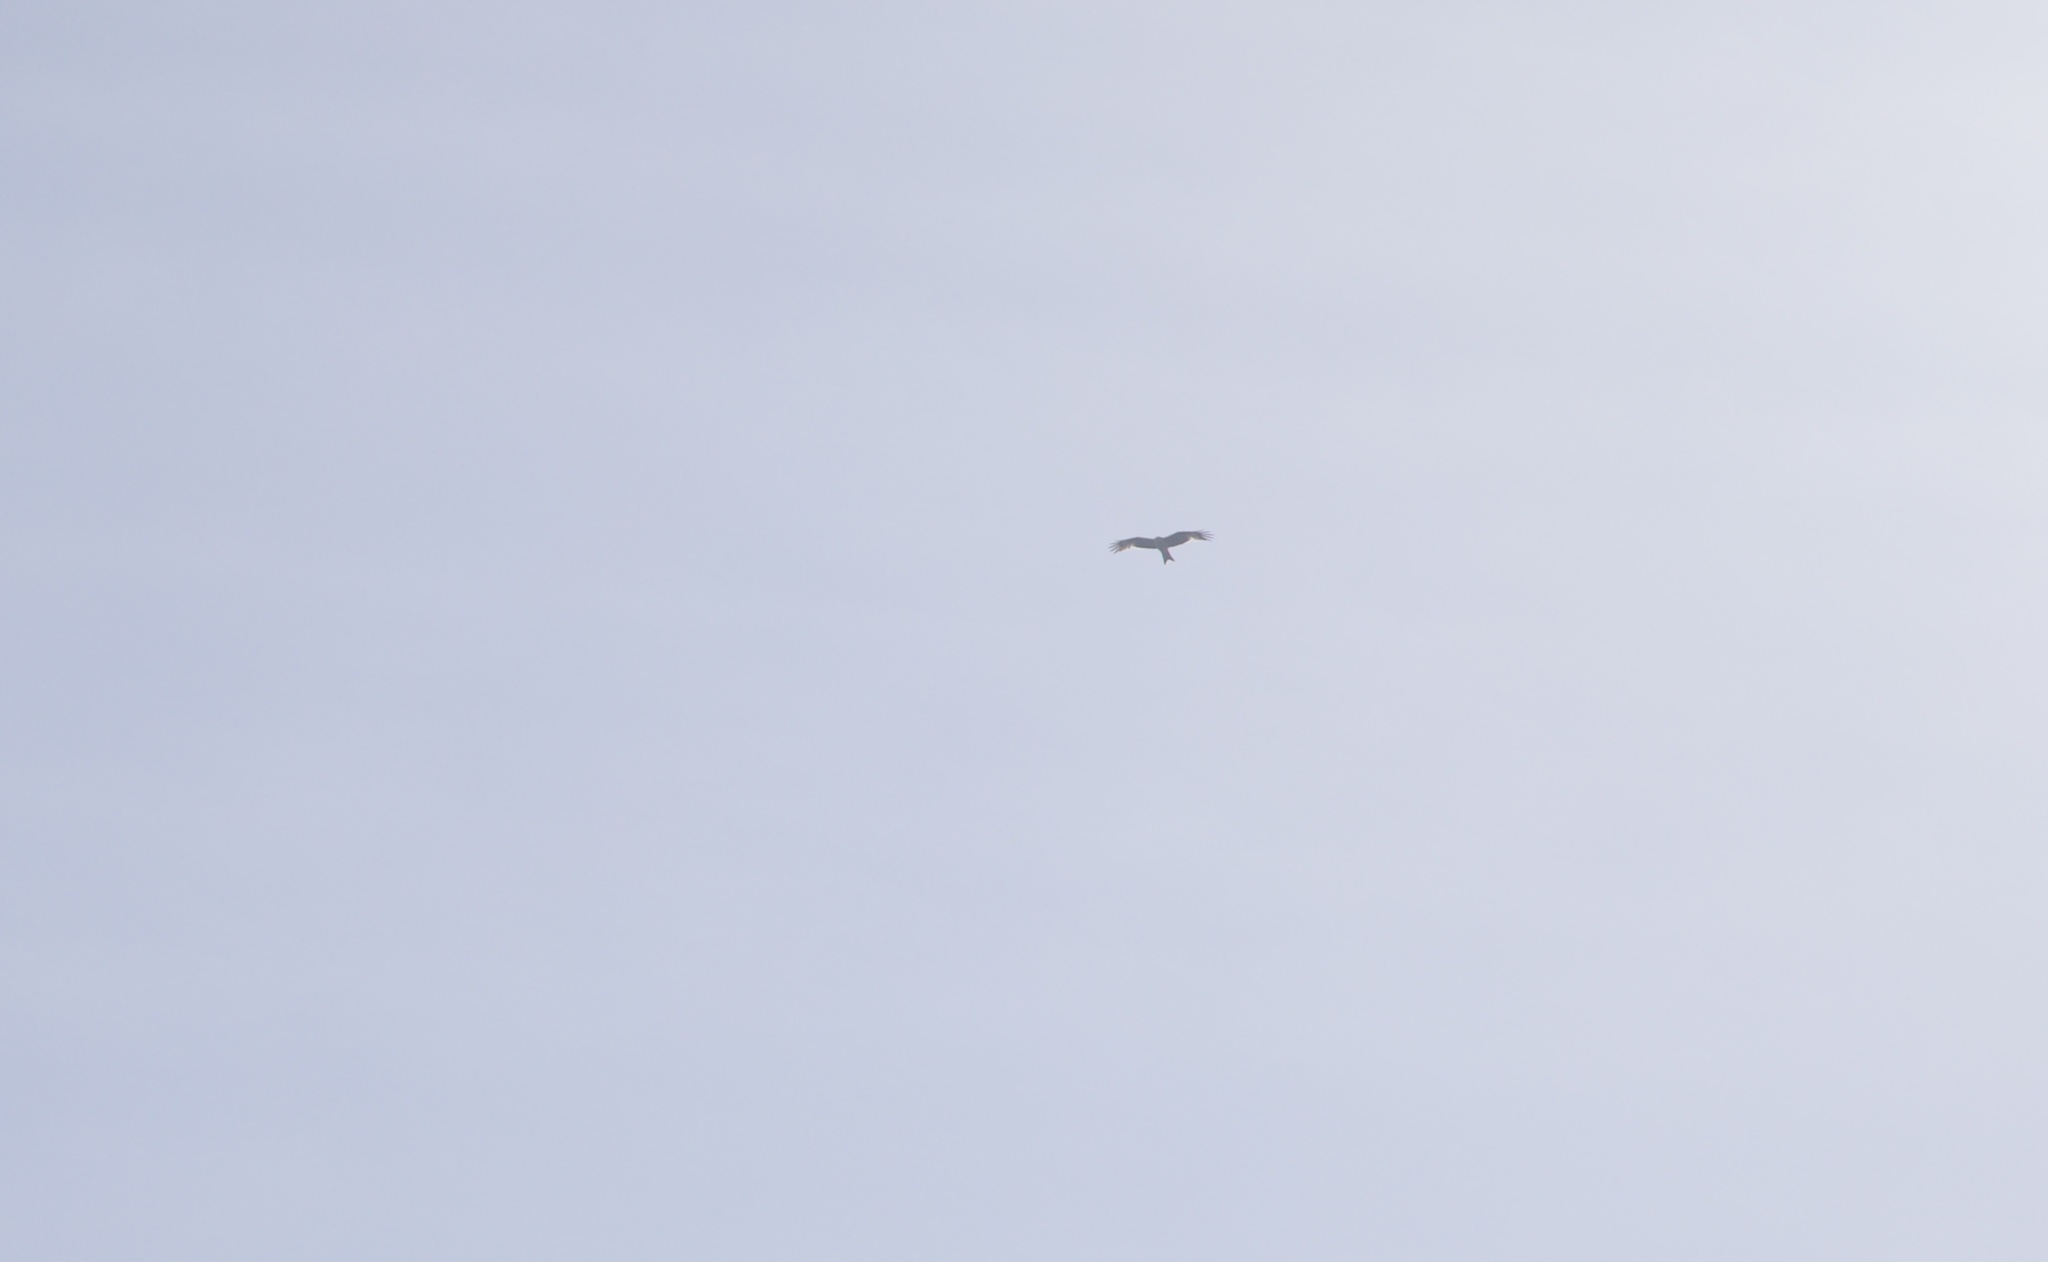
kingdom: Animalia
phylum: Chordata
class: Aves
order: Accipitriformes
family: Accipitridae
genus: Milvus
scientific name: Milvus milvus
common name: Red kite
